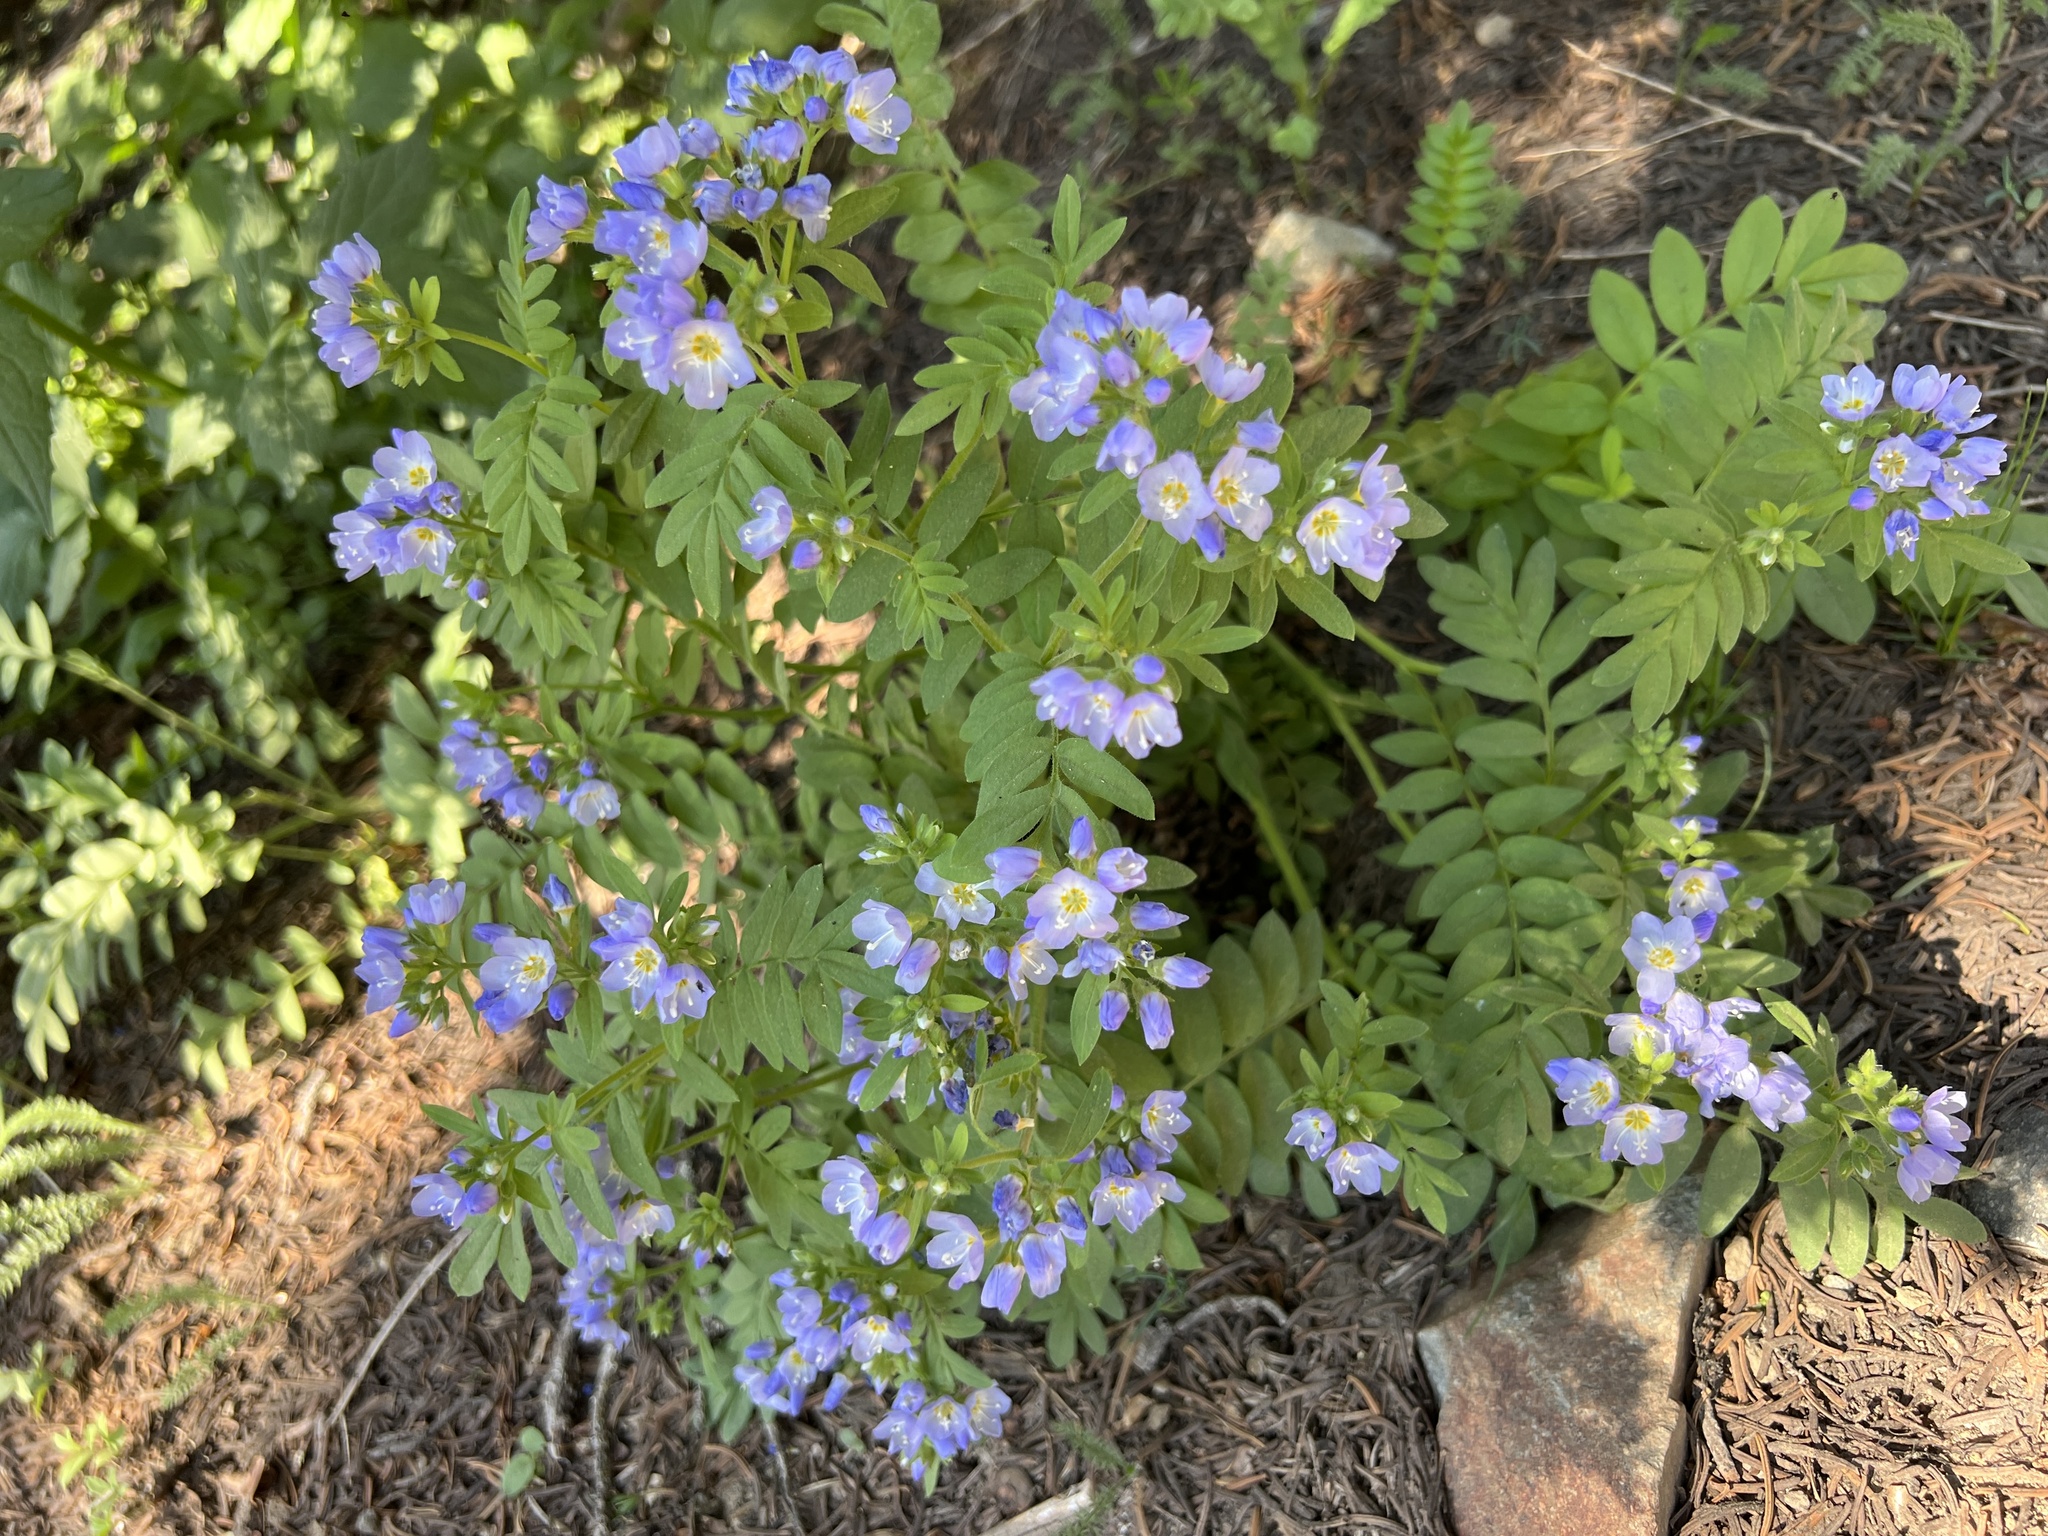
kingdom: Plantae
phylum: Tracheophyta
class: Magnoliopsida
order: Ericales
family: Polemoniaceae
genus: Polemonium
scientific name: Polemonium californicum
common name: California jacob's ladder
